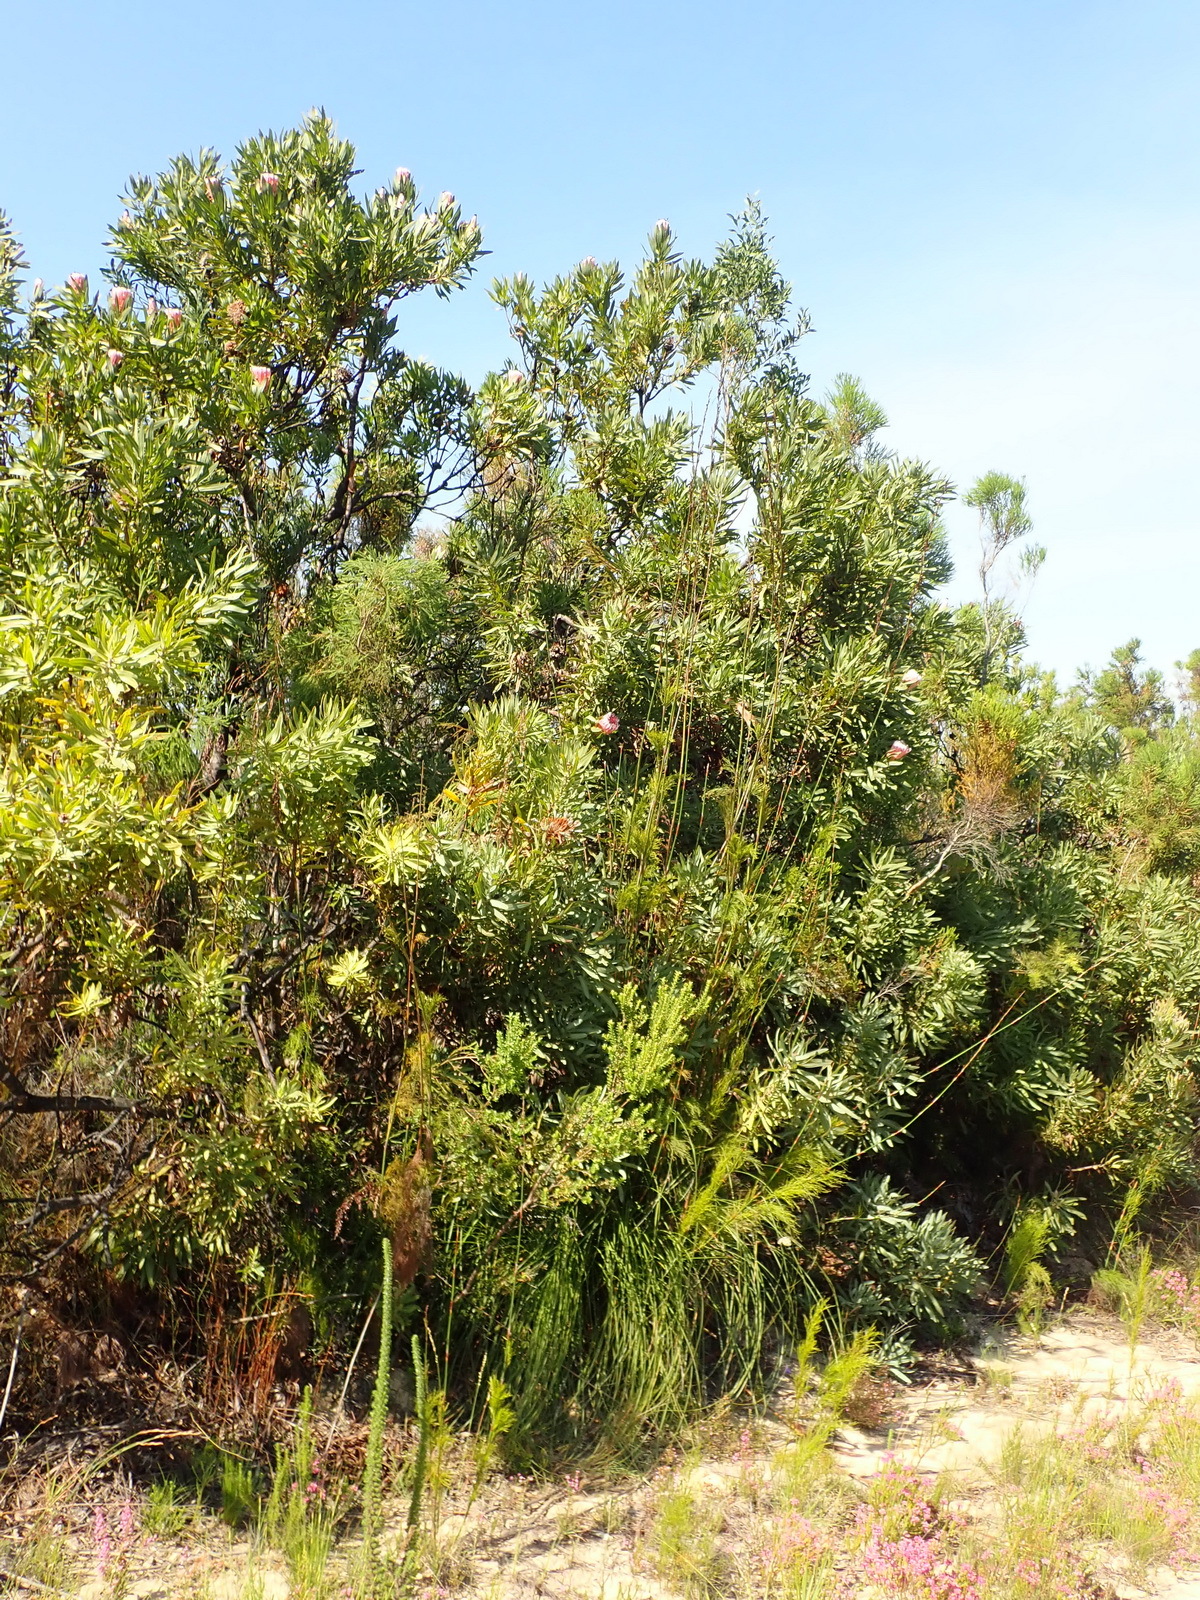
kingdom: Plantae
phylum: Tracheophyta
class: Magnoliopsida
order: Proteales
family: Proteaceae
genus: Protea
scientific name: Protea neriifolia
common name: Blue sugarbush
